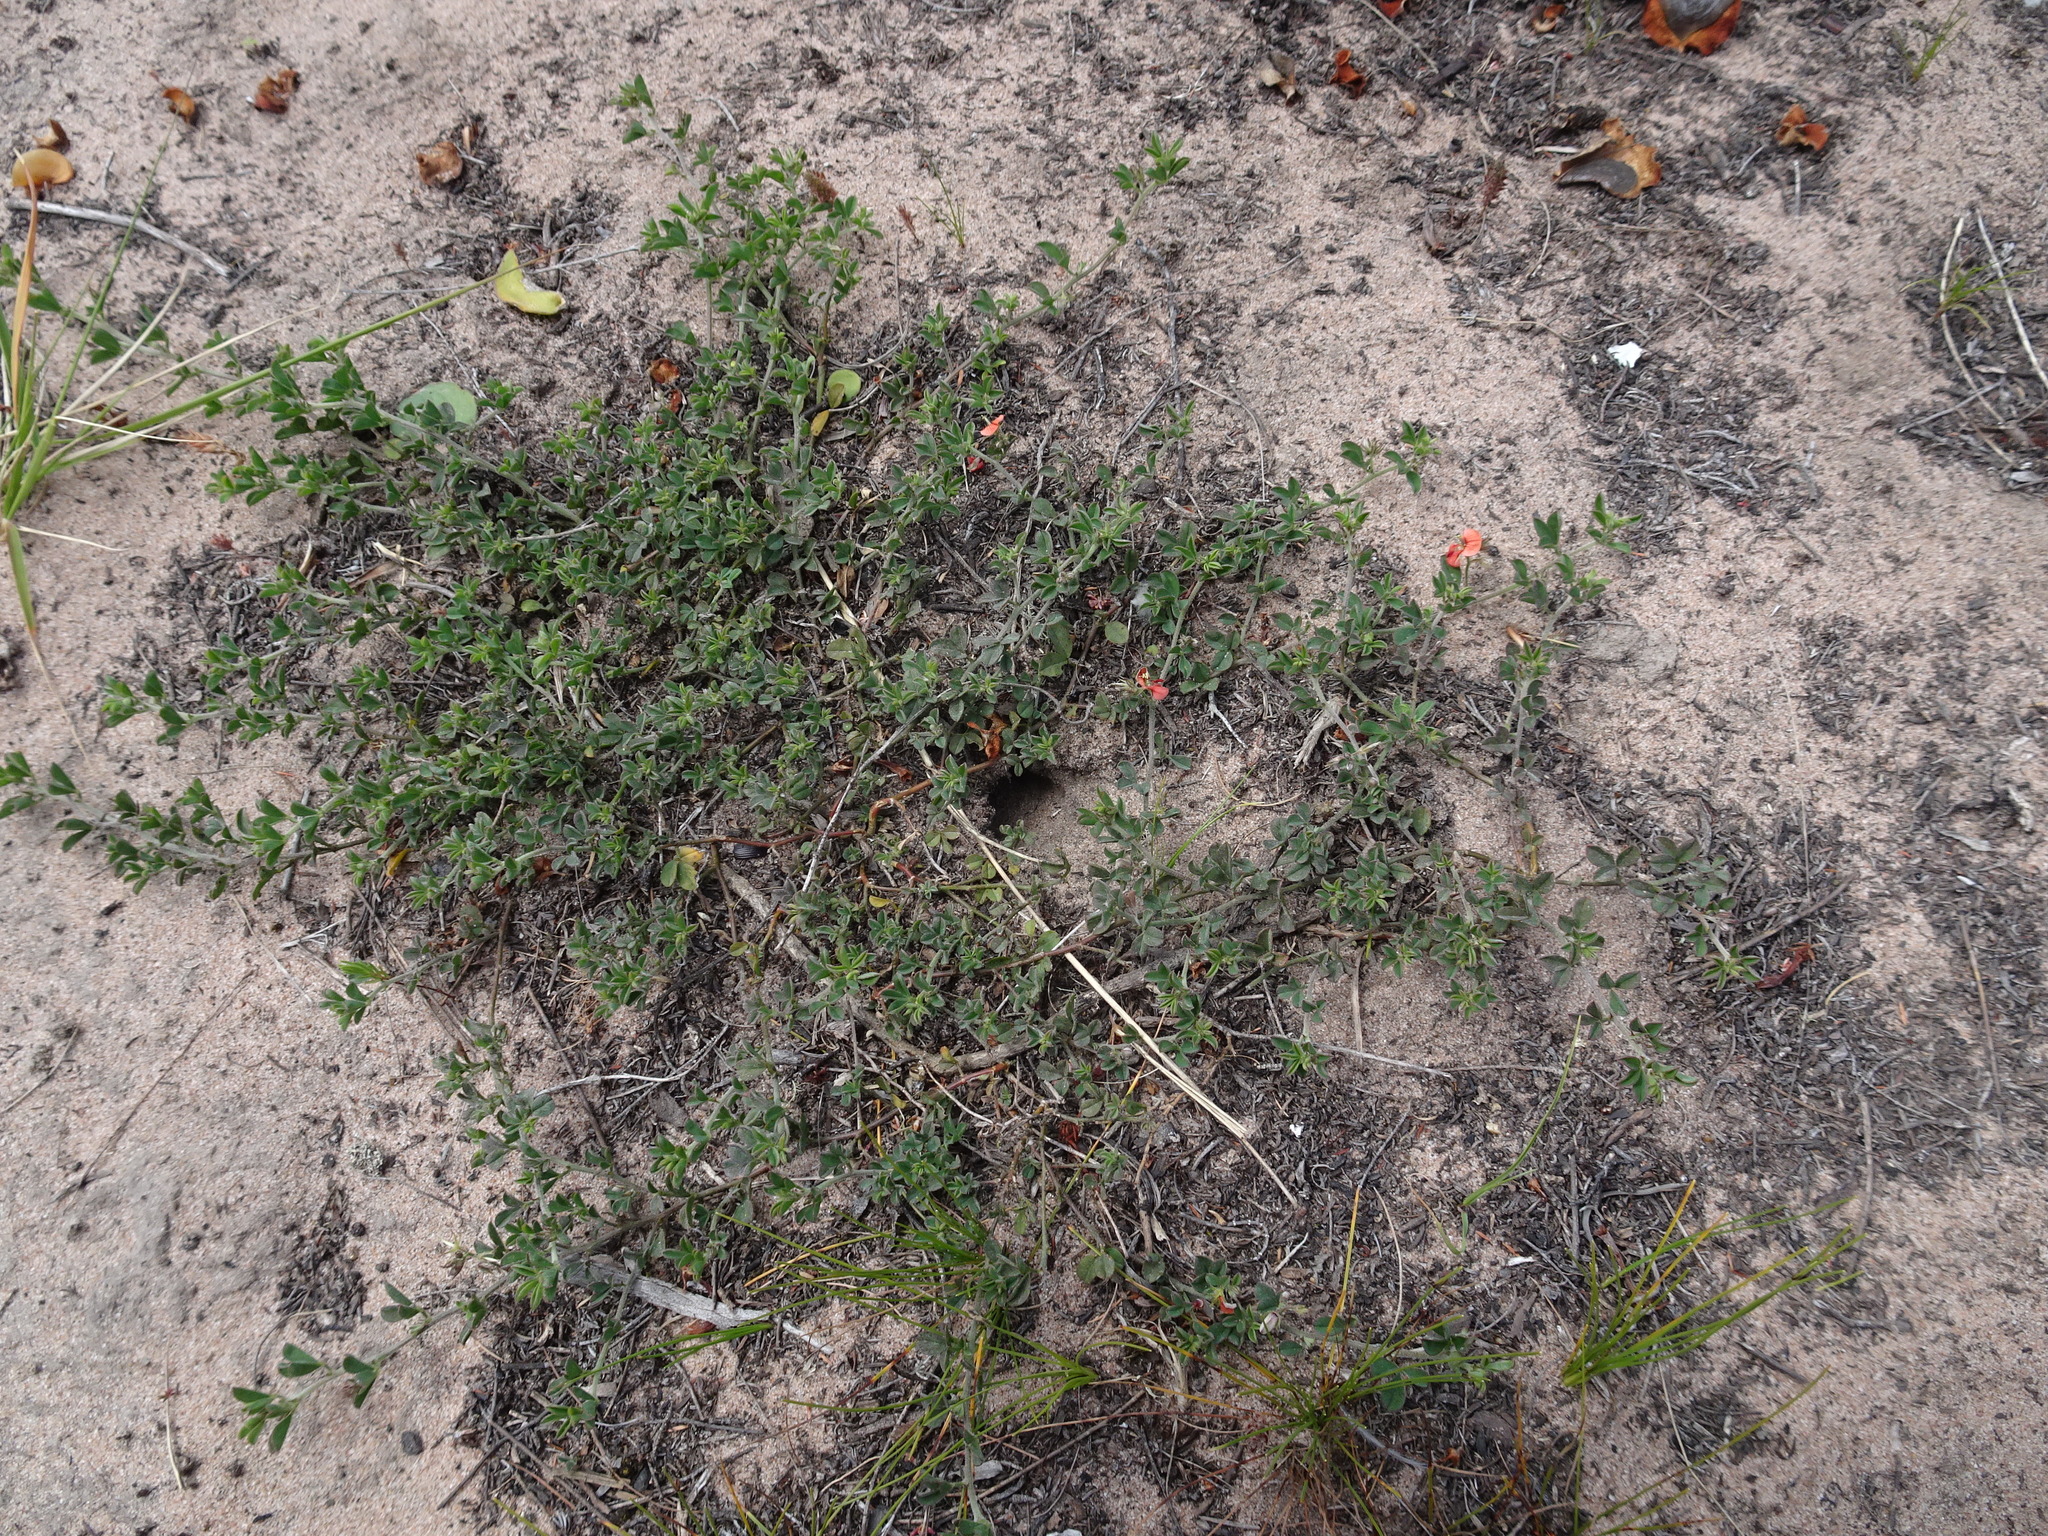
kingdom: Plantae
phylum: Tracheophyta
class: Magnoliopsida
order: Fabales
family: Fabaceae
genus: Indigofera
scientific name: Indigofera priorii
